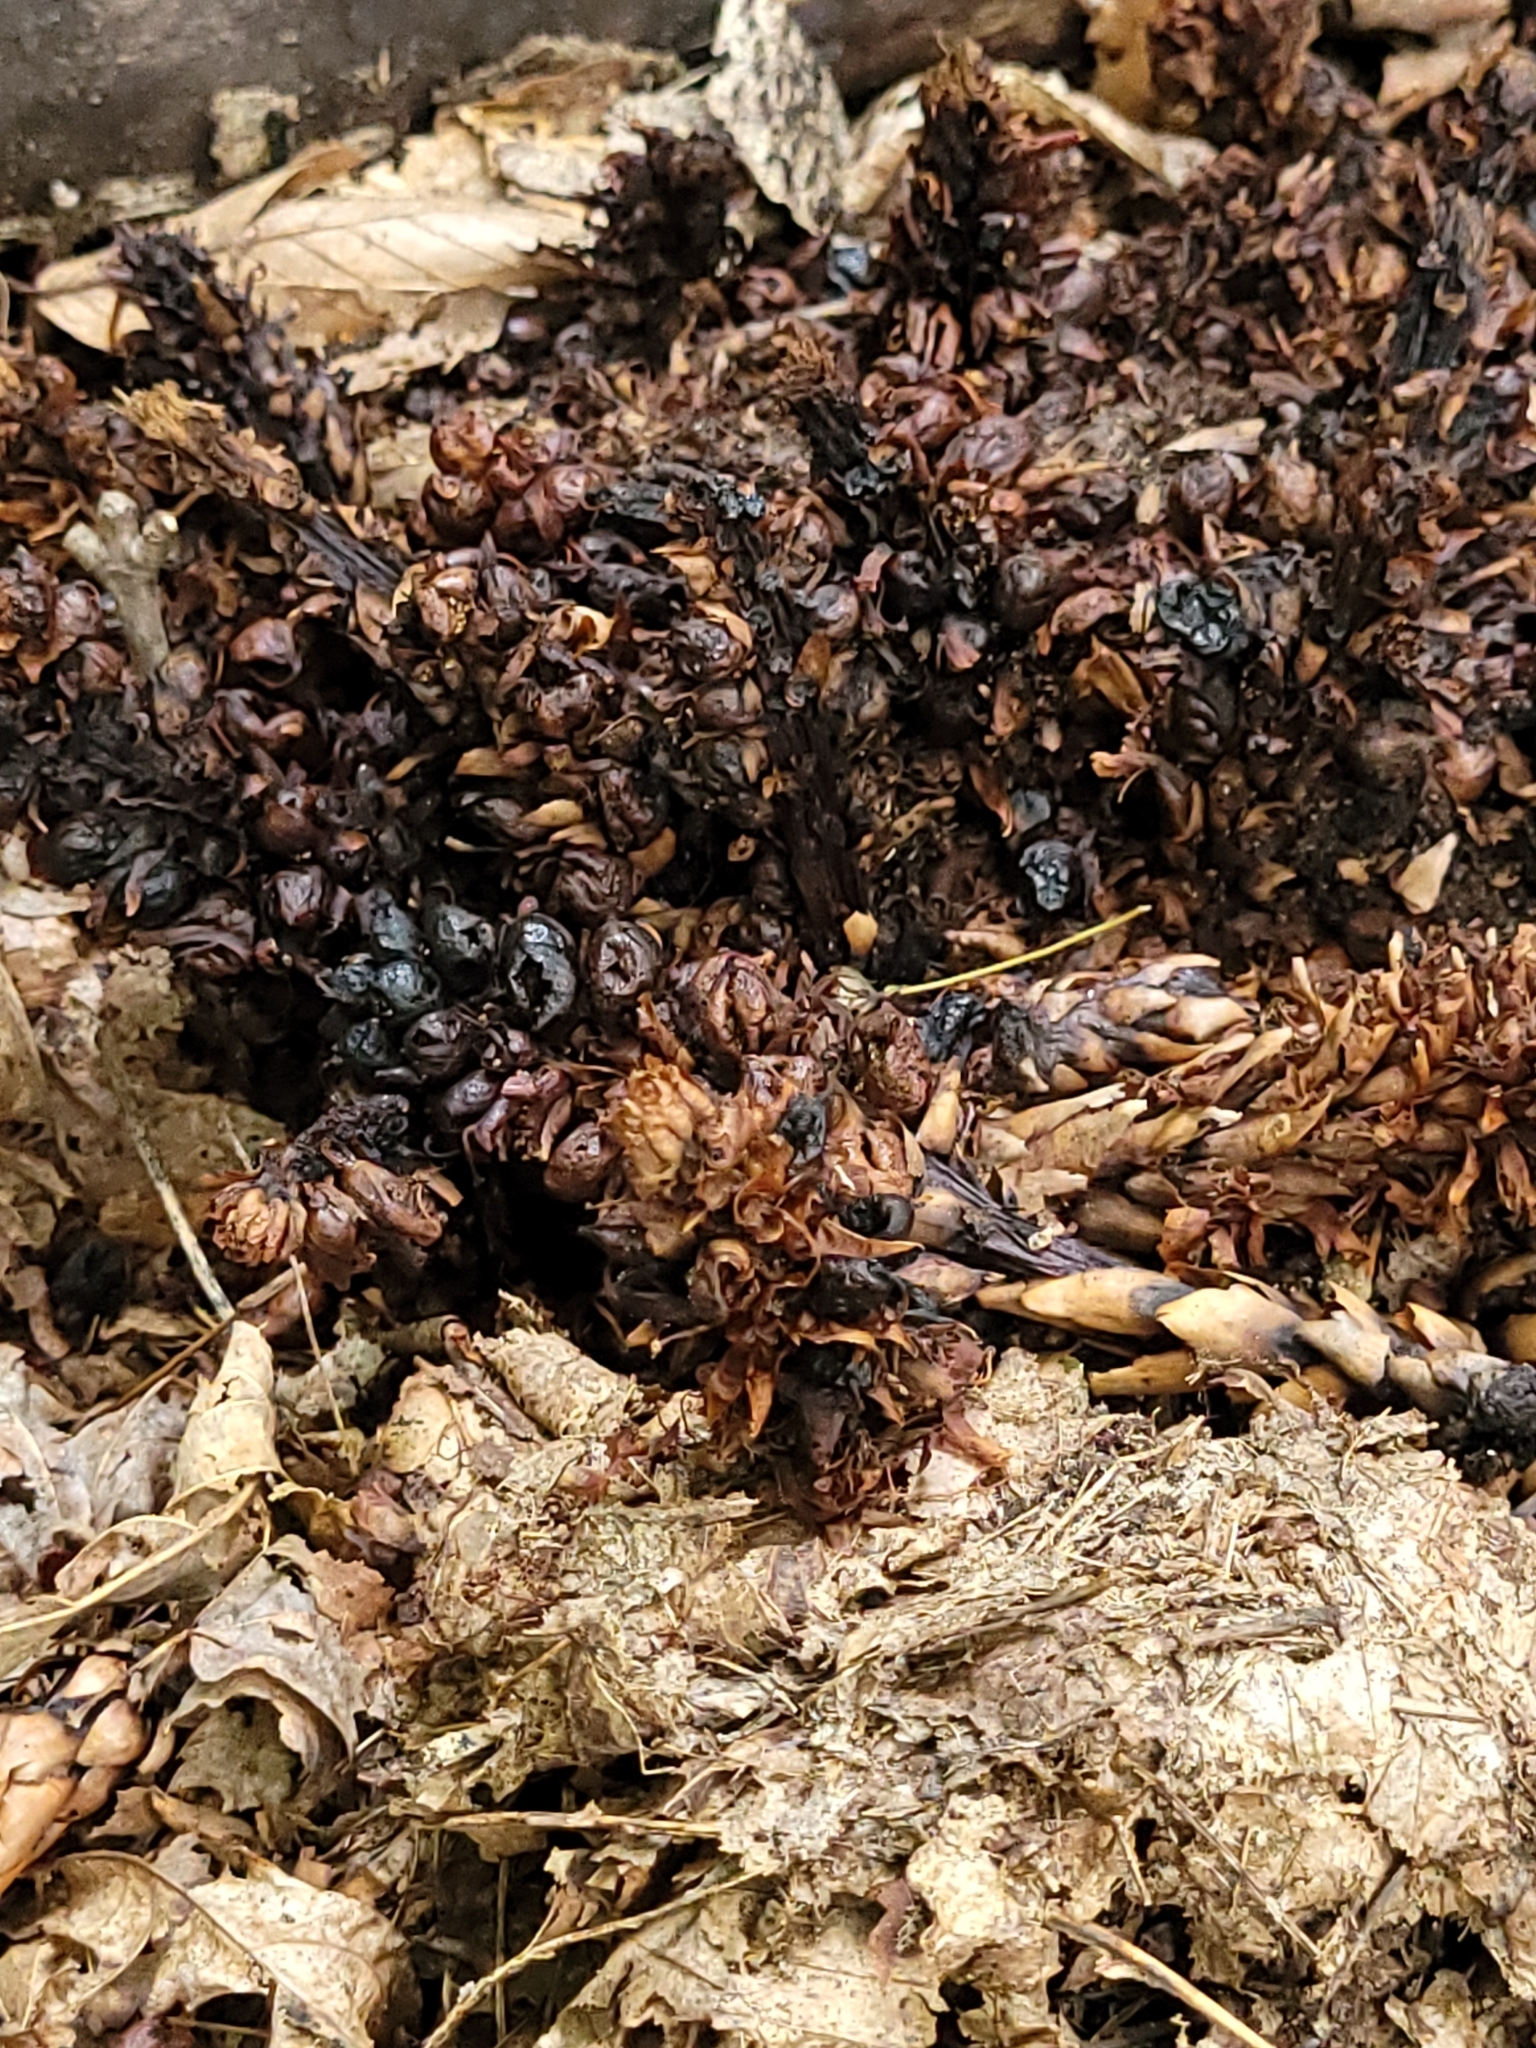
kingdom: Plantae
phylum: Tracheophyta
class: Magnoliopsida
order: Lamiales
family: Orobanchaceae
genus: Conopholis
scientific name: Conopholis americana
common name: American cancer-root
